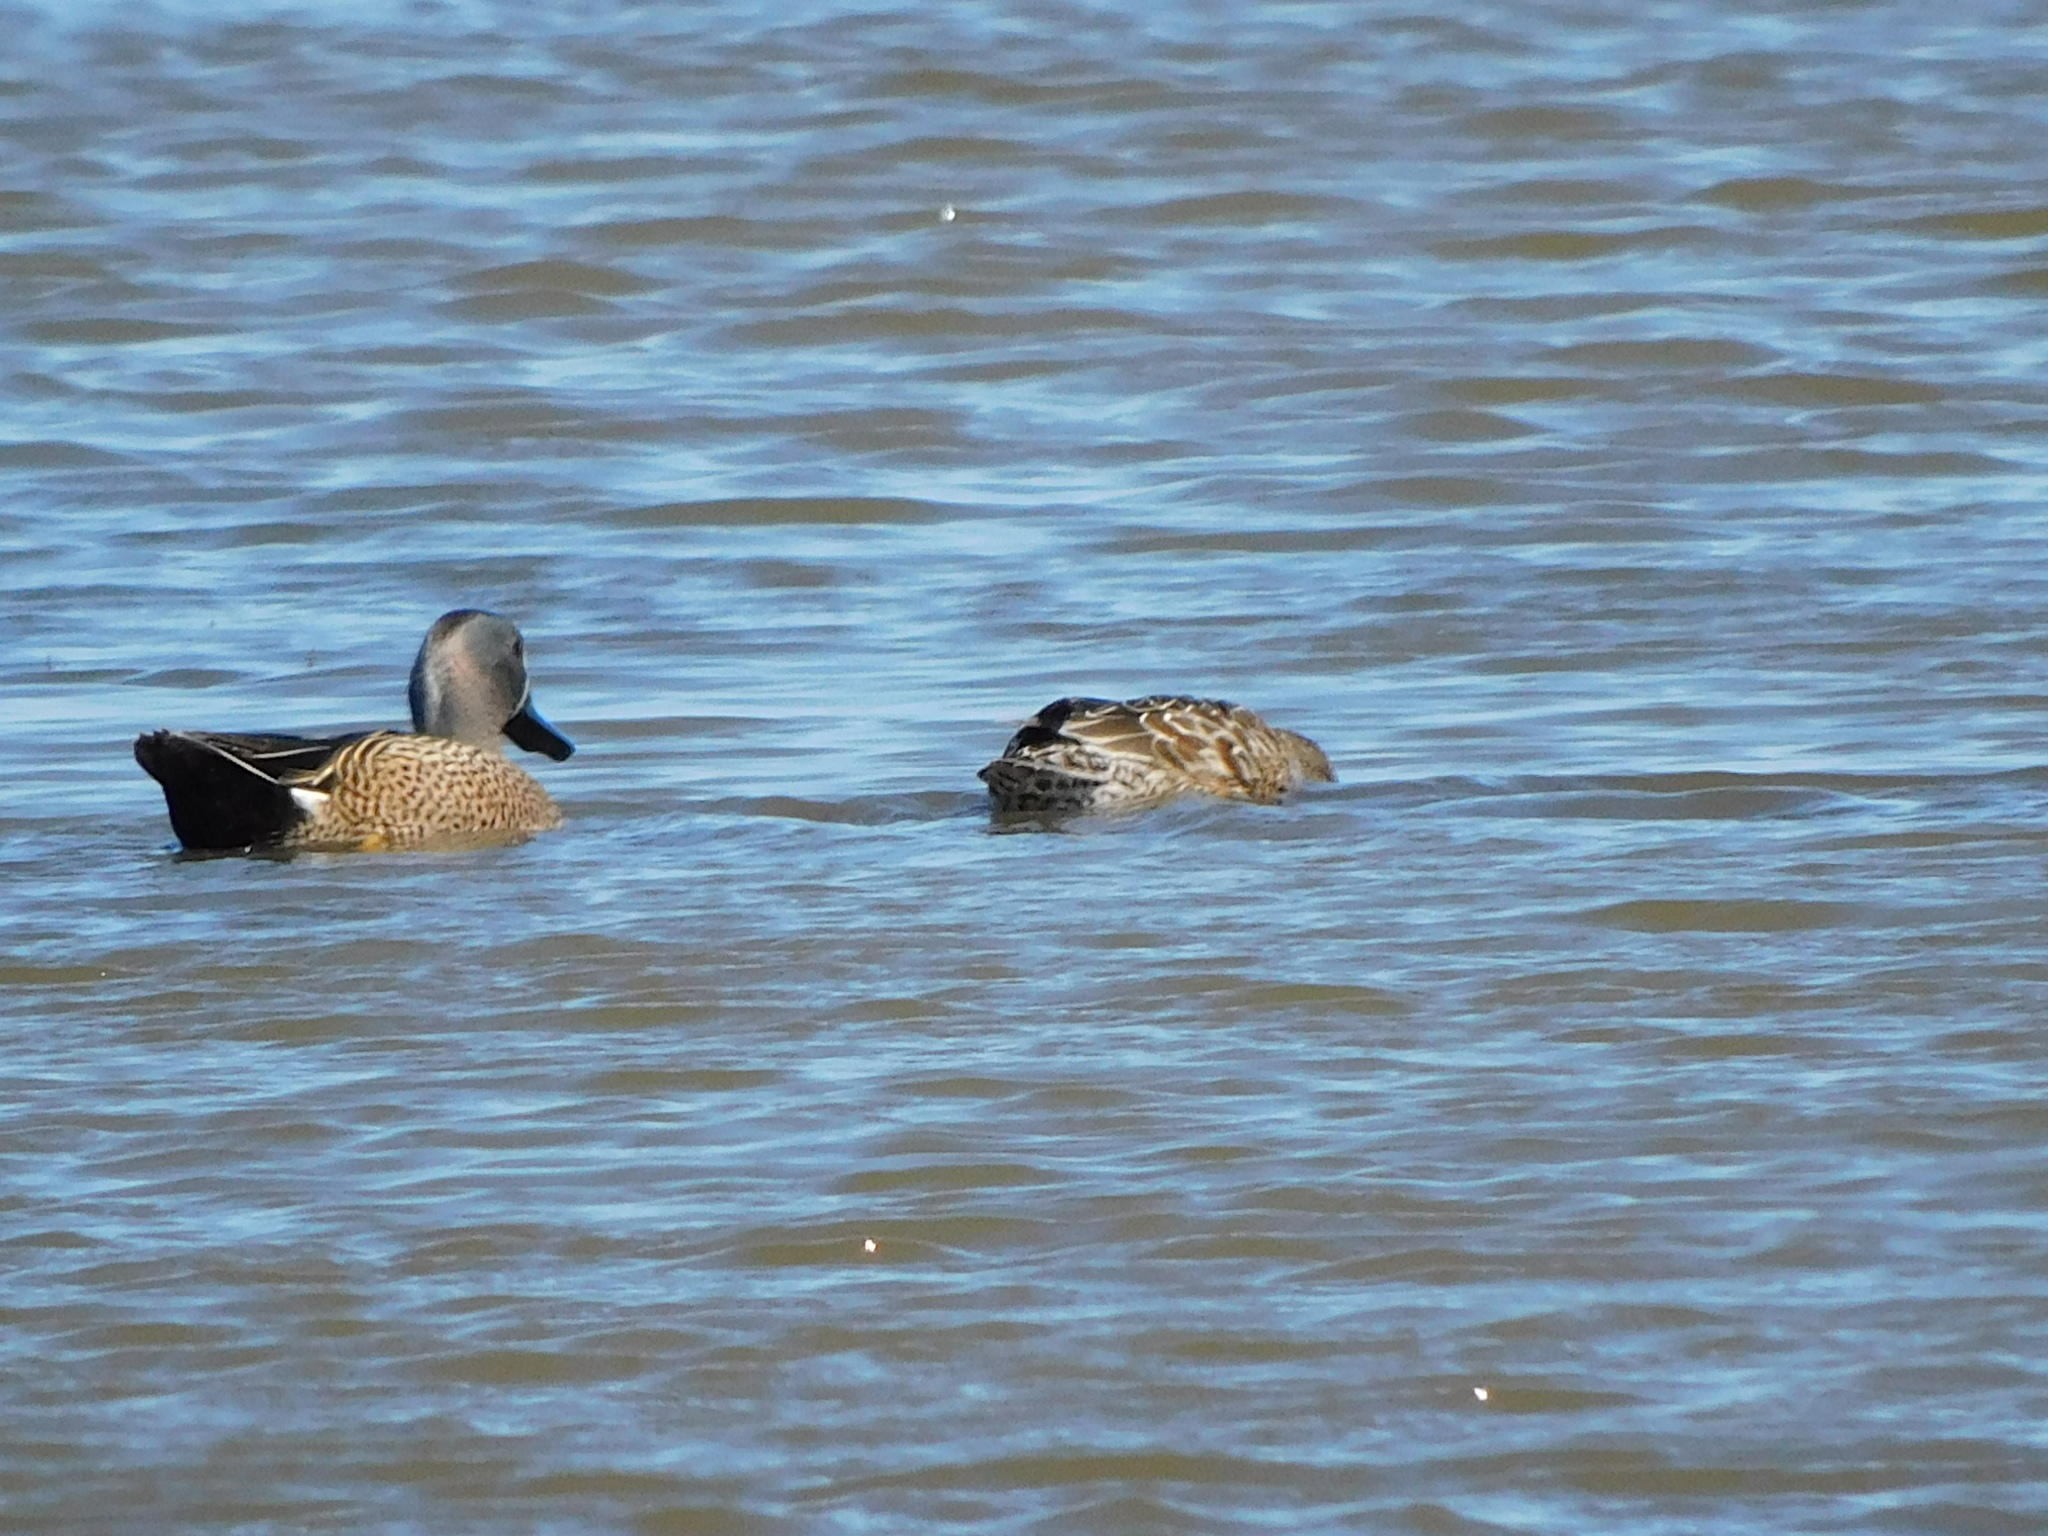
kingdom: Animalia
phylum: Chordata
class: Aves
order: Anseriformes
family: Anatidae
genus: Spatula
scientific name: Spatula discors
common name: Blue-winged teal
